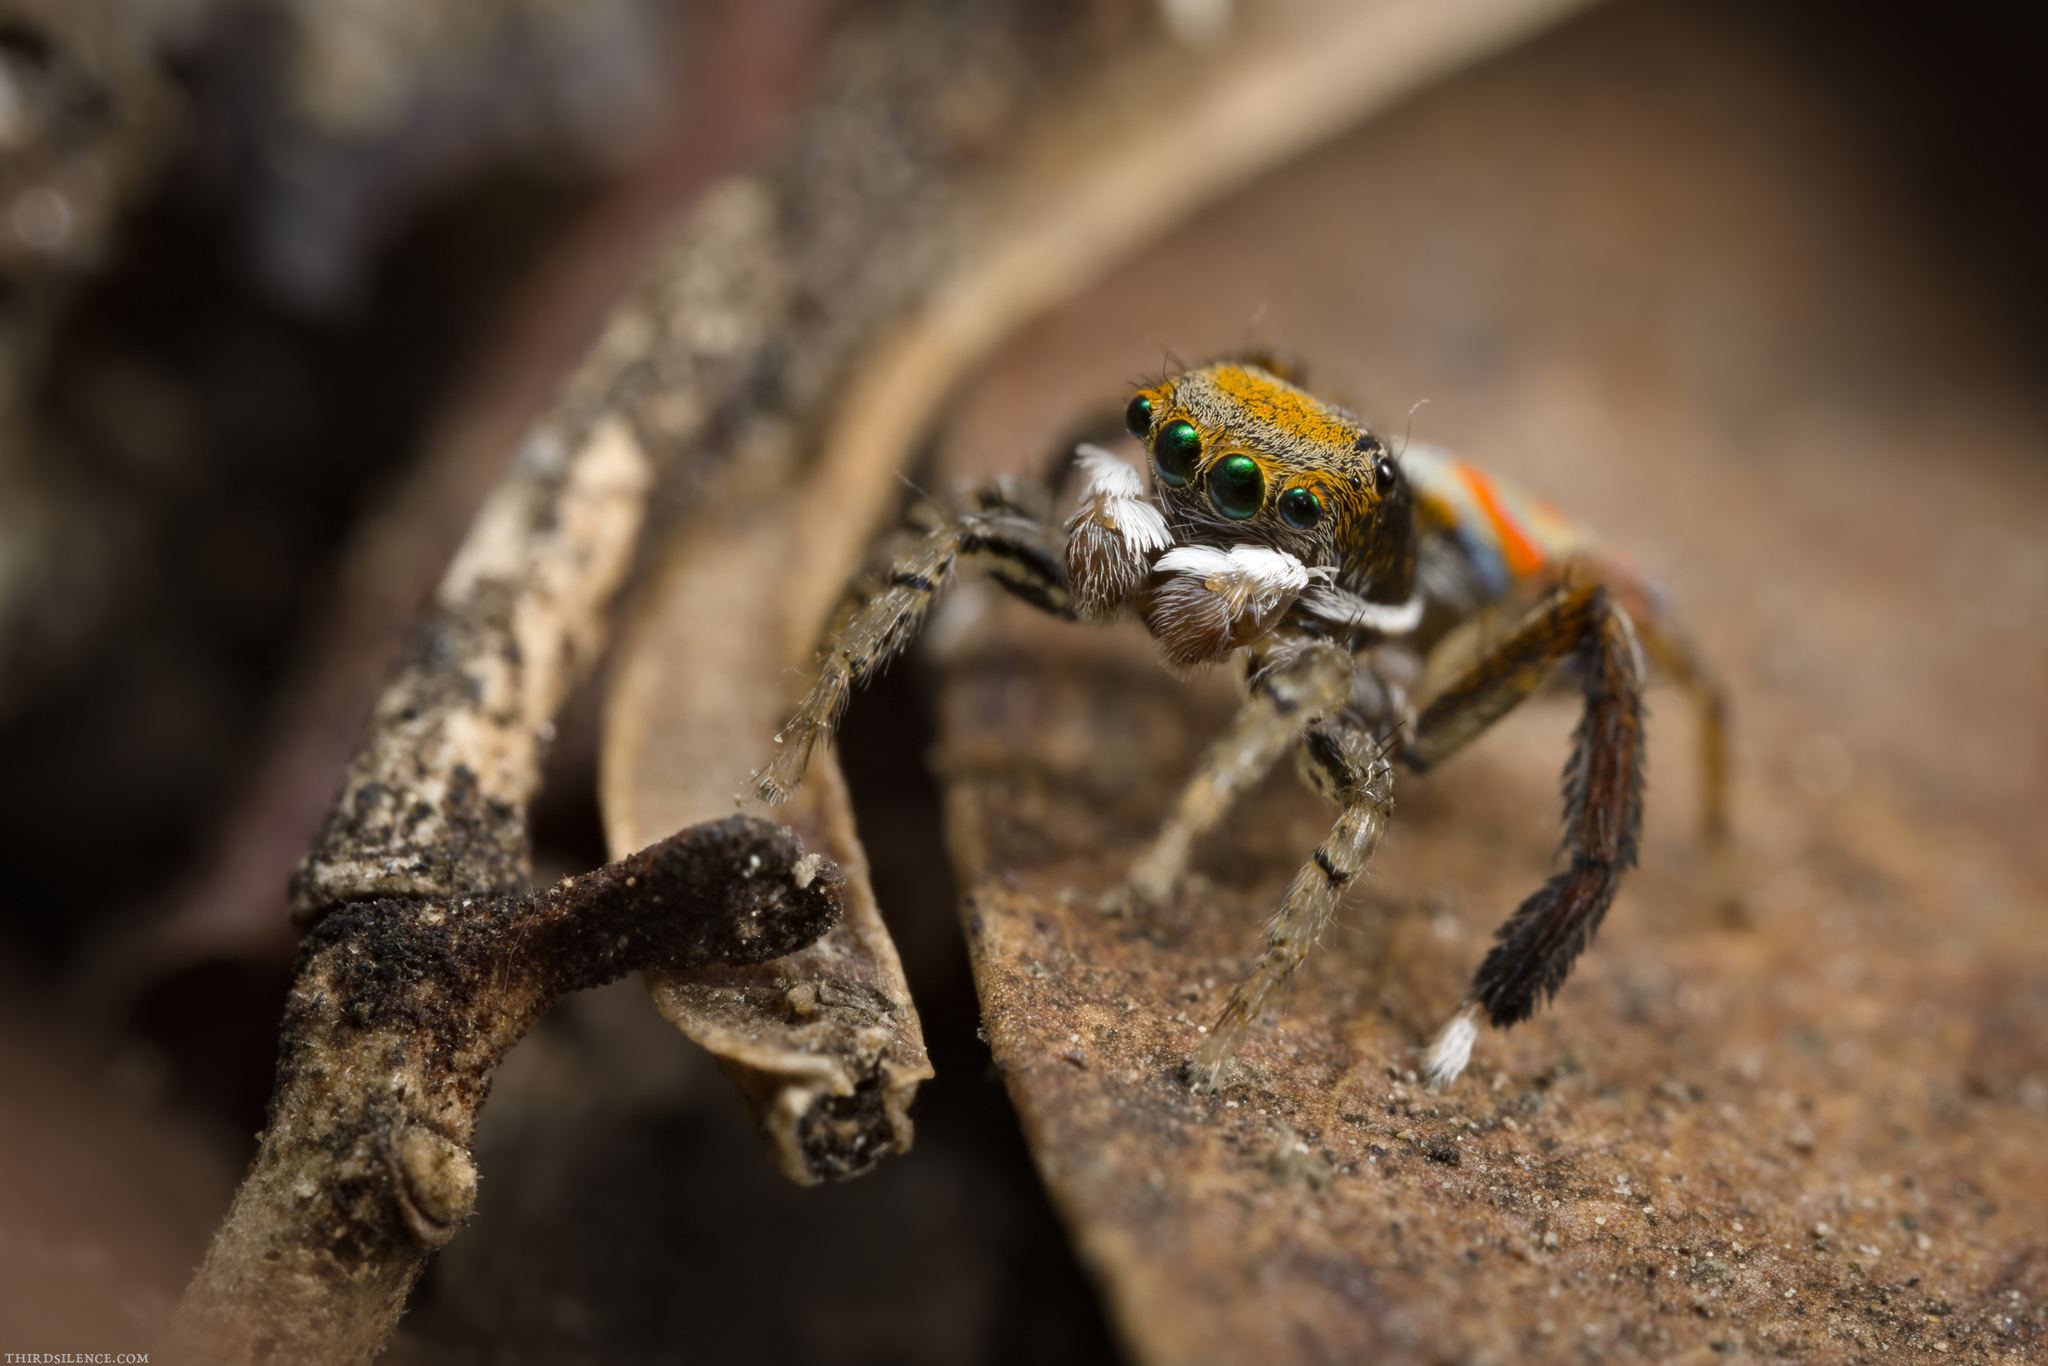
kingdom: Animalia
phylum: Arthropoda
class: Arachnida
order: Araneae
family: Salticidae
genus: Maratus
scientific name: Maratus pavonis
